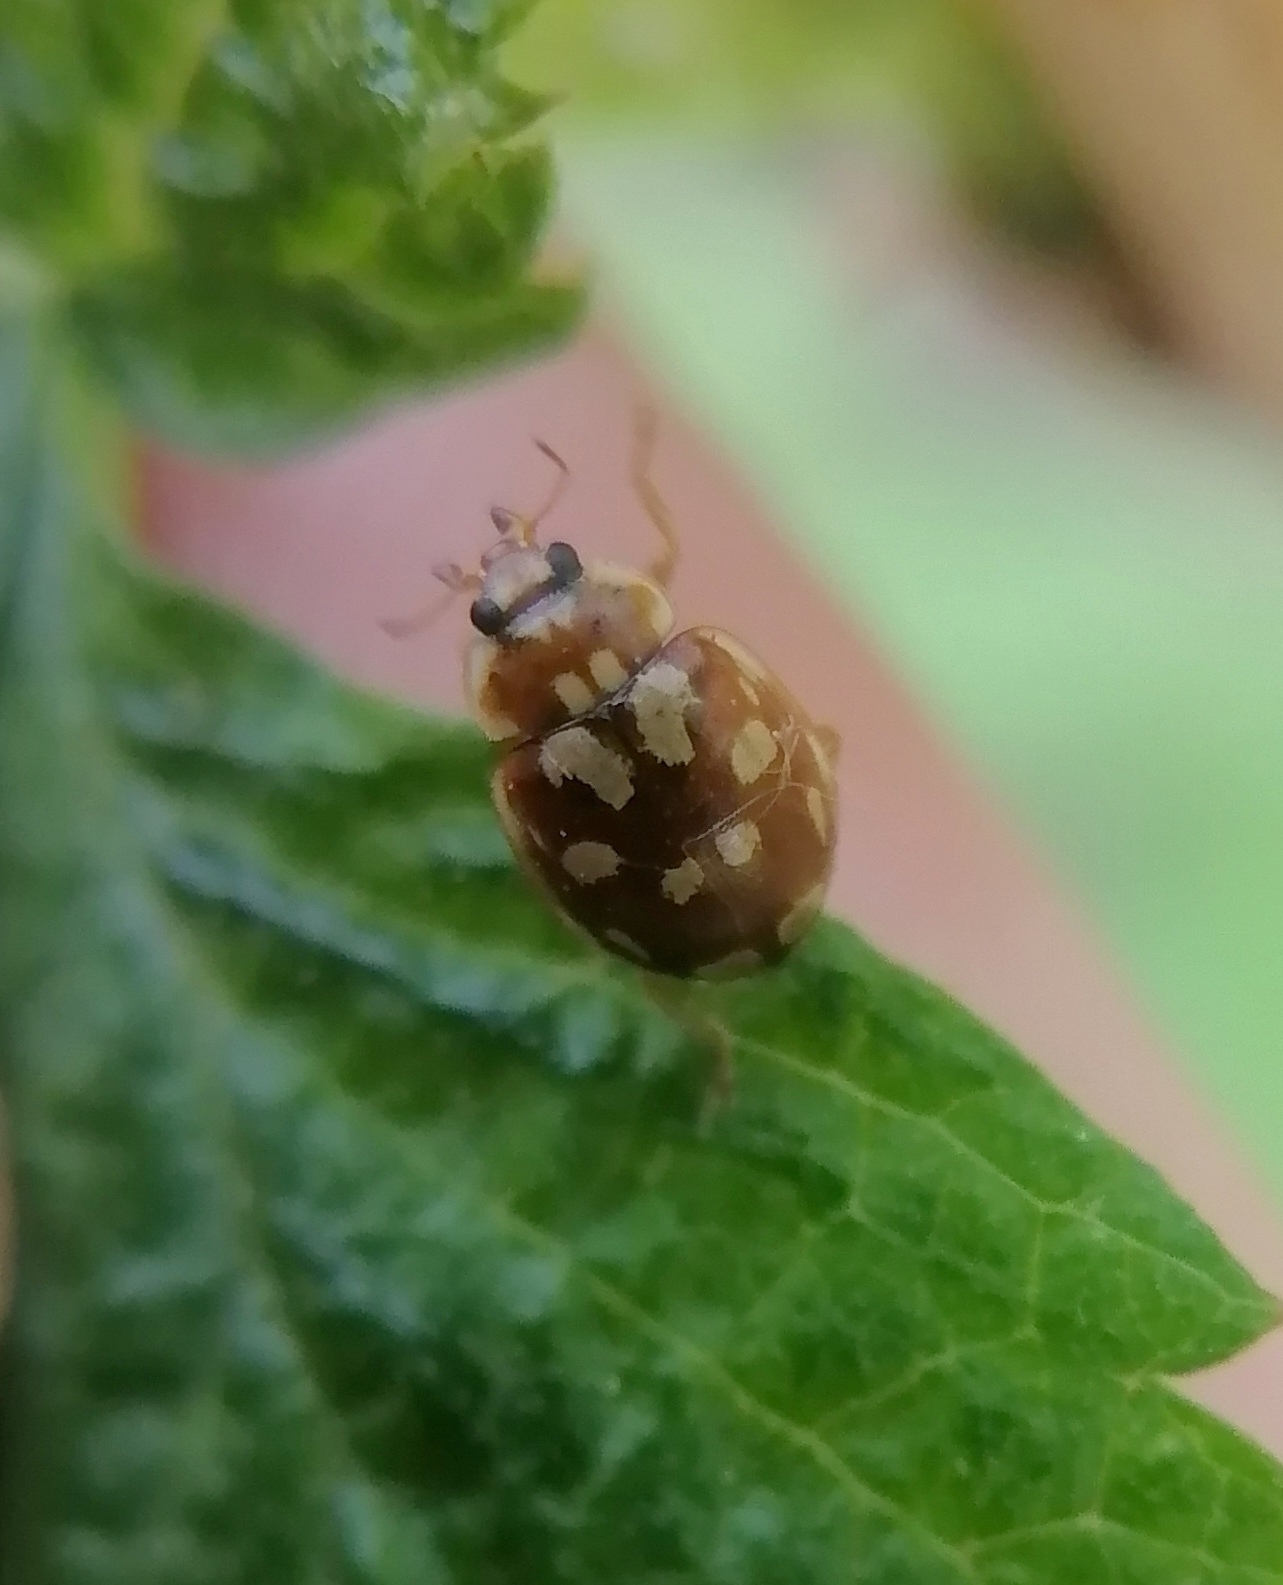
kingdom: Animalia
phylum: Arthropoda
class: Insecta
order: Coleoptera
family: Coccinellidae
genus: Myrrha
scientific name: Myrrha octodecimguttata
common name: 18-spot ladybird
